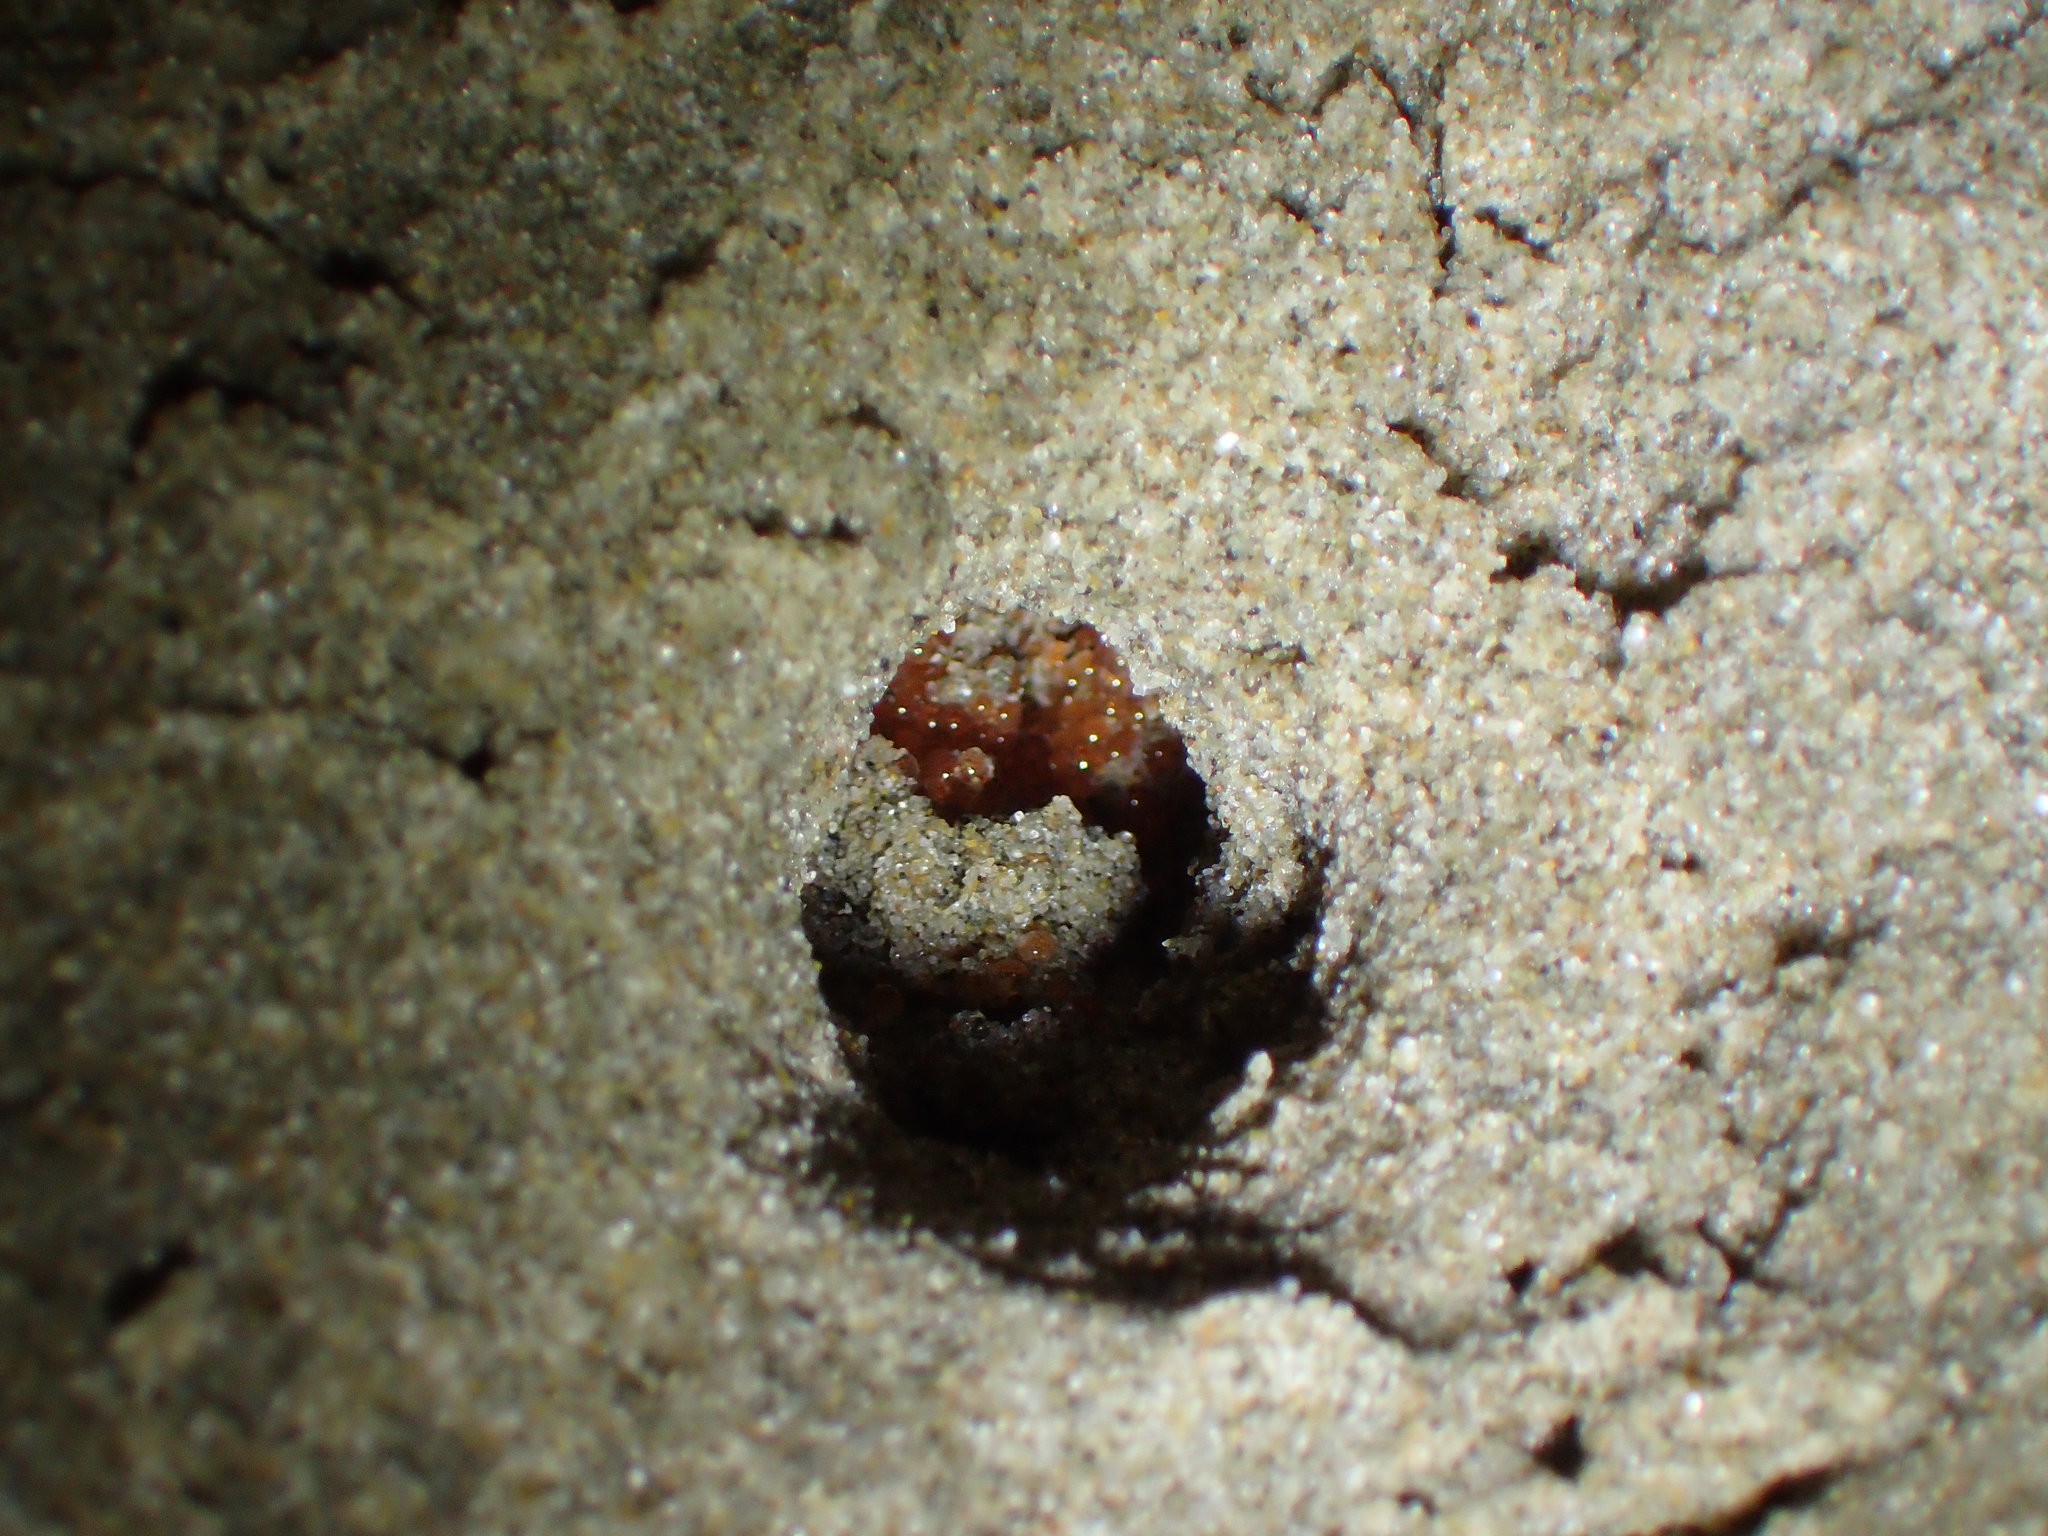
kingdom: Animalia
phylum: Chordata
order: Atheriniformes
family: Atherinopsidae
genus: Leuresthes
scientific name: Leuresthes tenuis
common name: California grunion
